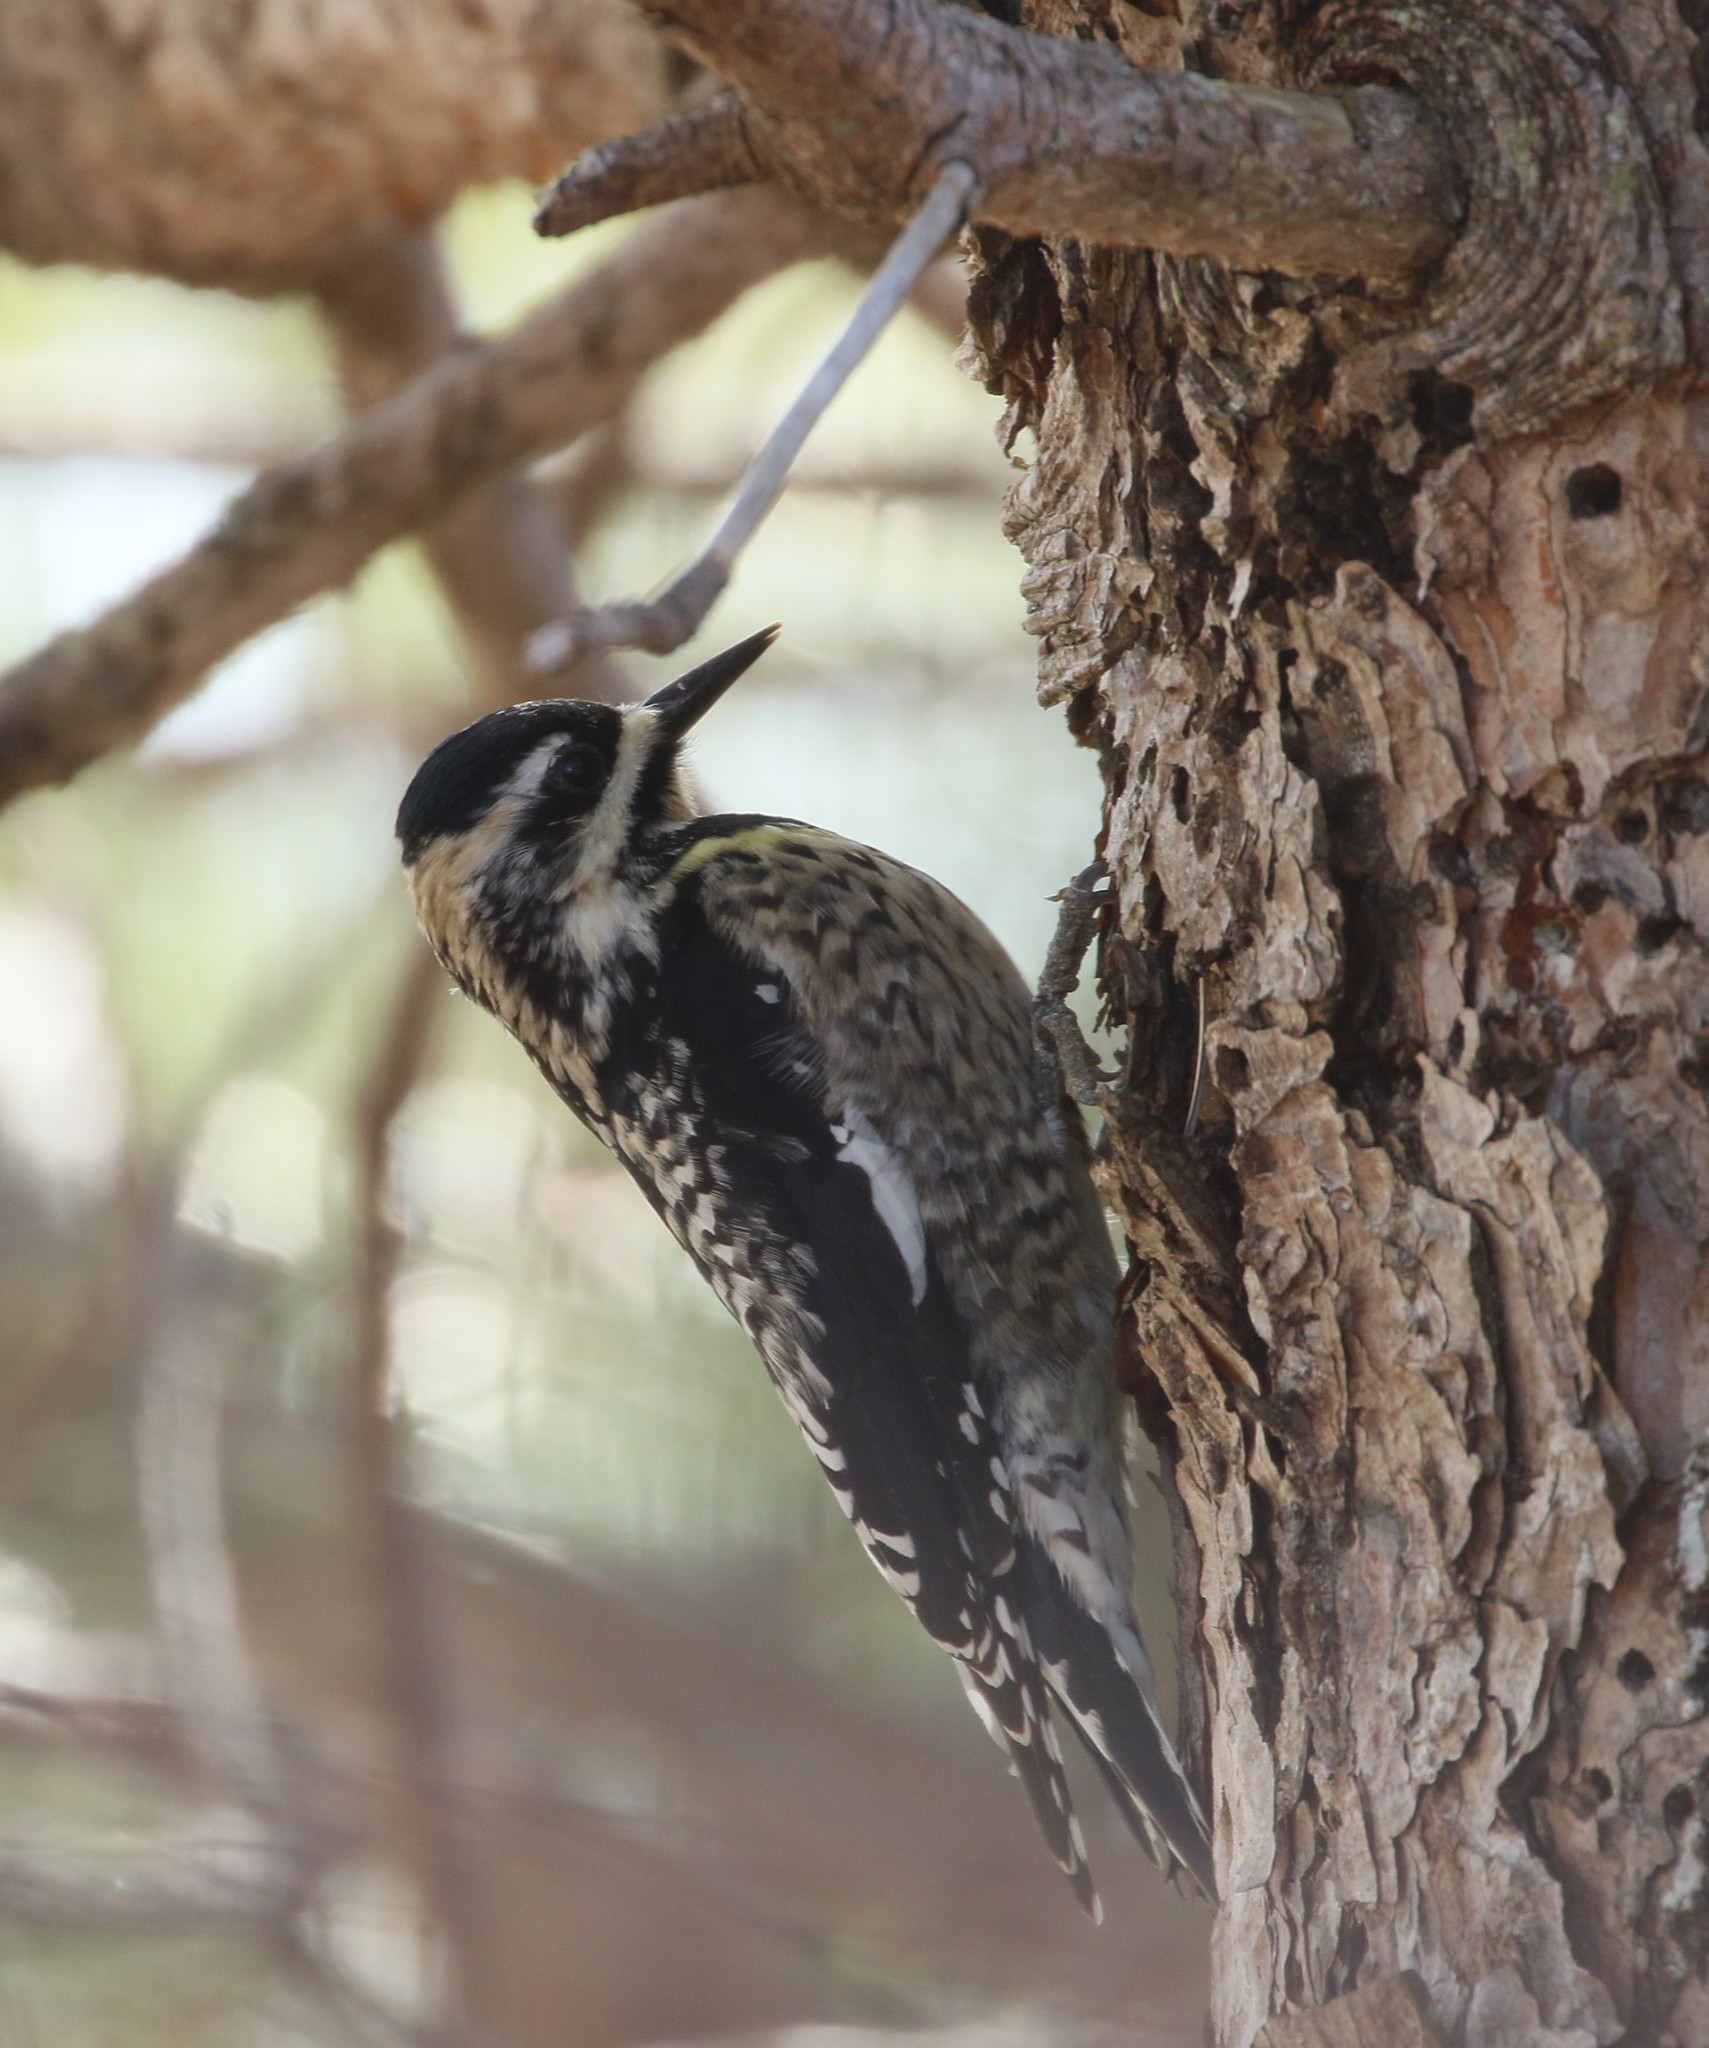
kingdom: Animalia
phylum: Chordata
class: Aves
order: Piciformes
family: Picidae
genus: Sphyrapicus
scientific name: Sphyrapicus varius
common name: Yellow-bellied sapsucker
